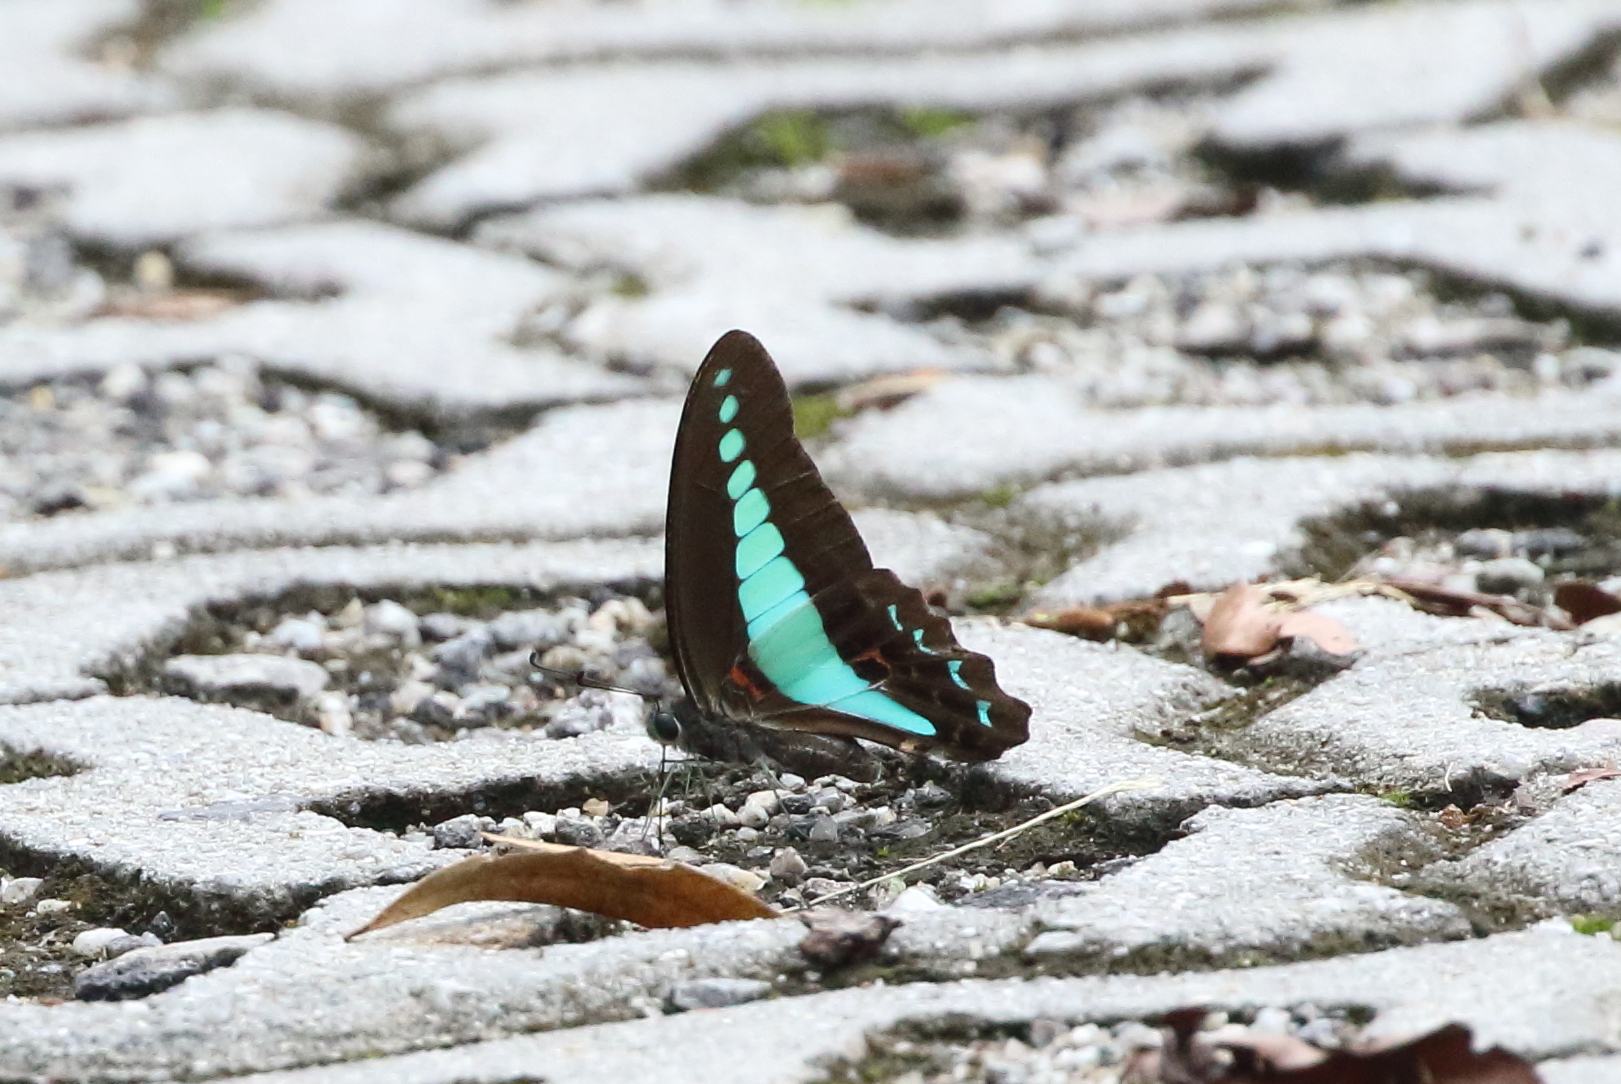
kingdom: Fungi
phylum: Ascomycota
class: Sordariomycetes
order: Microascales
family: Microascaceae
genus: Graphium
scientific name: Graphium sarpedon
